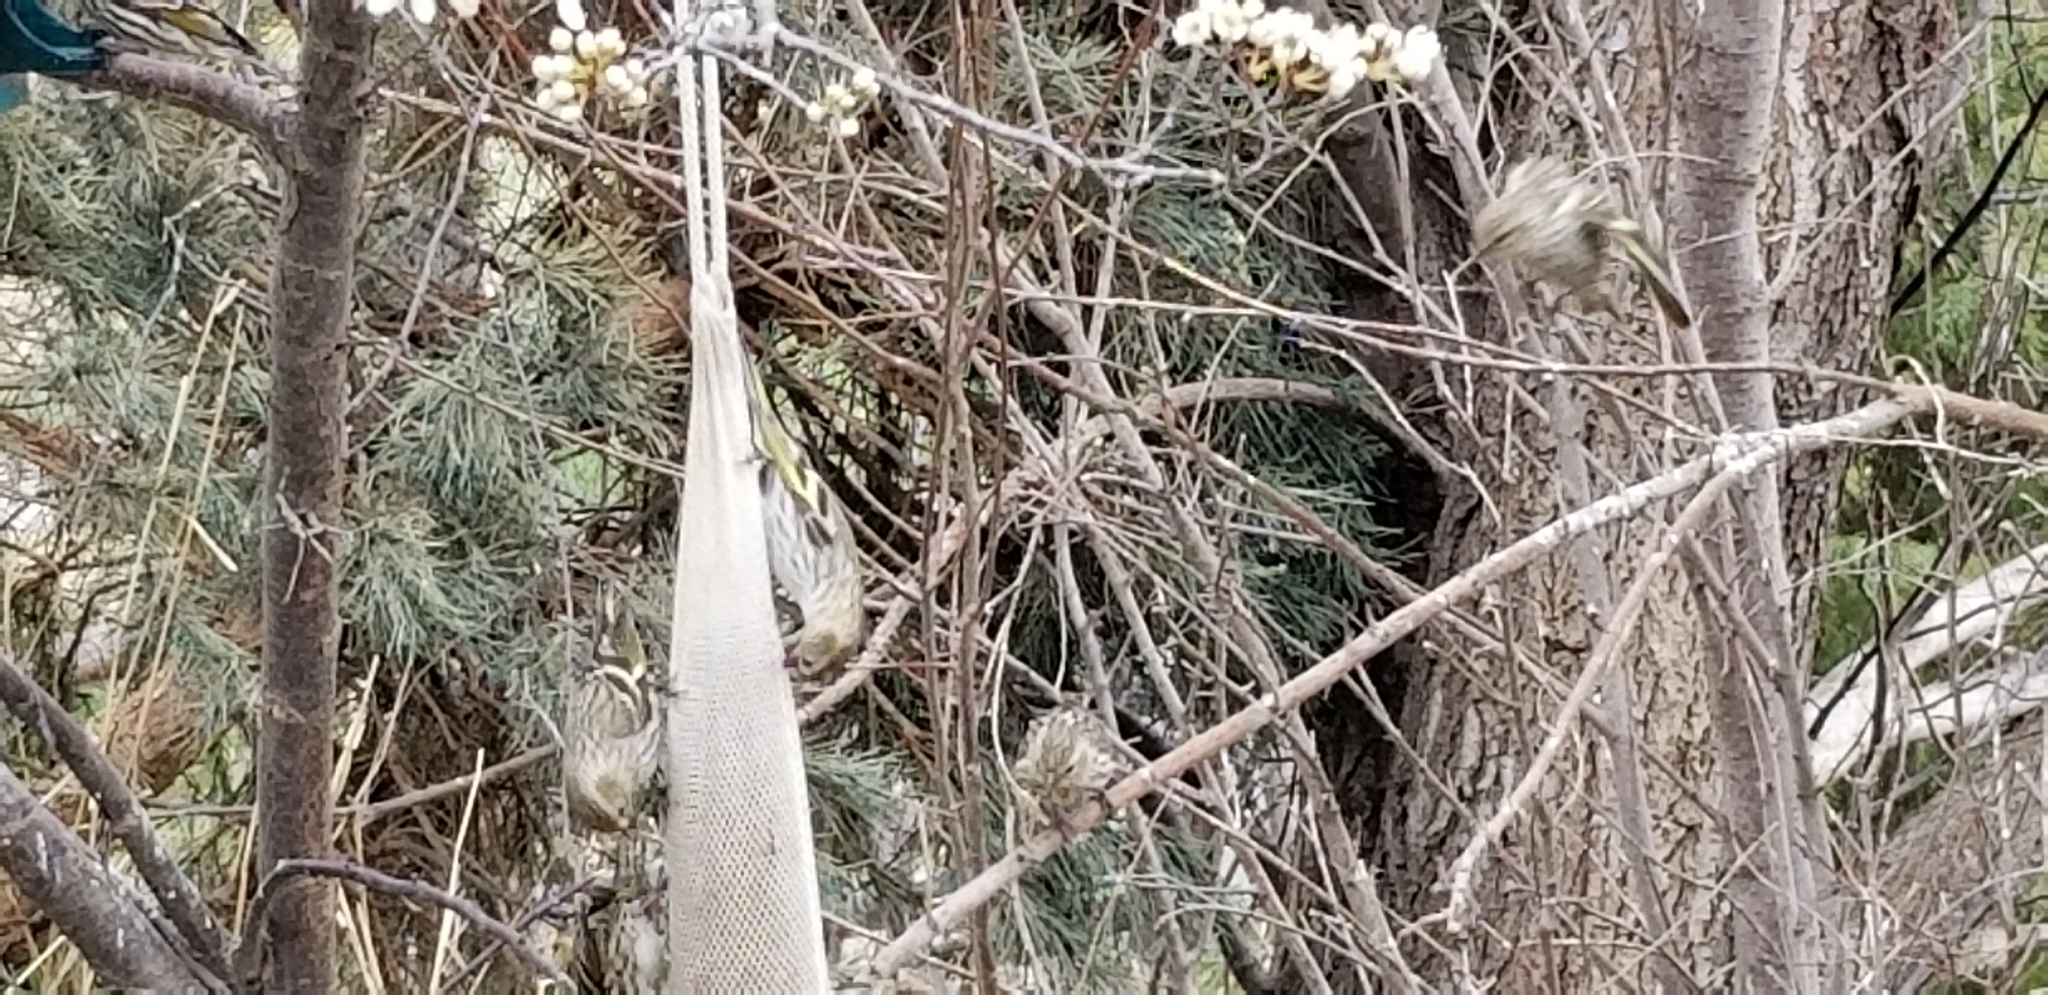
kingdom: Animalia
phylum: Chordata
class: Aves
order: Passeriformes
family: Fringillidae
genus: Spinus
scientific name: Spinus pinus
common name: Pine siskin
